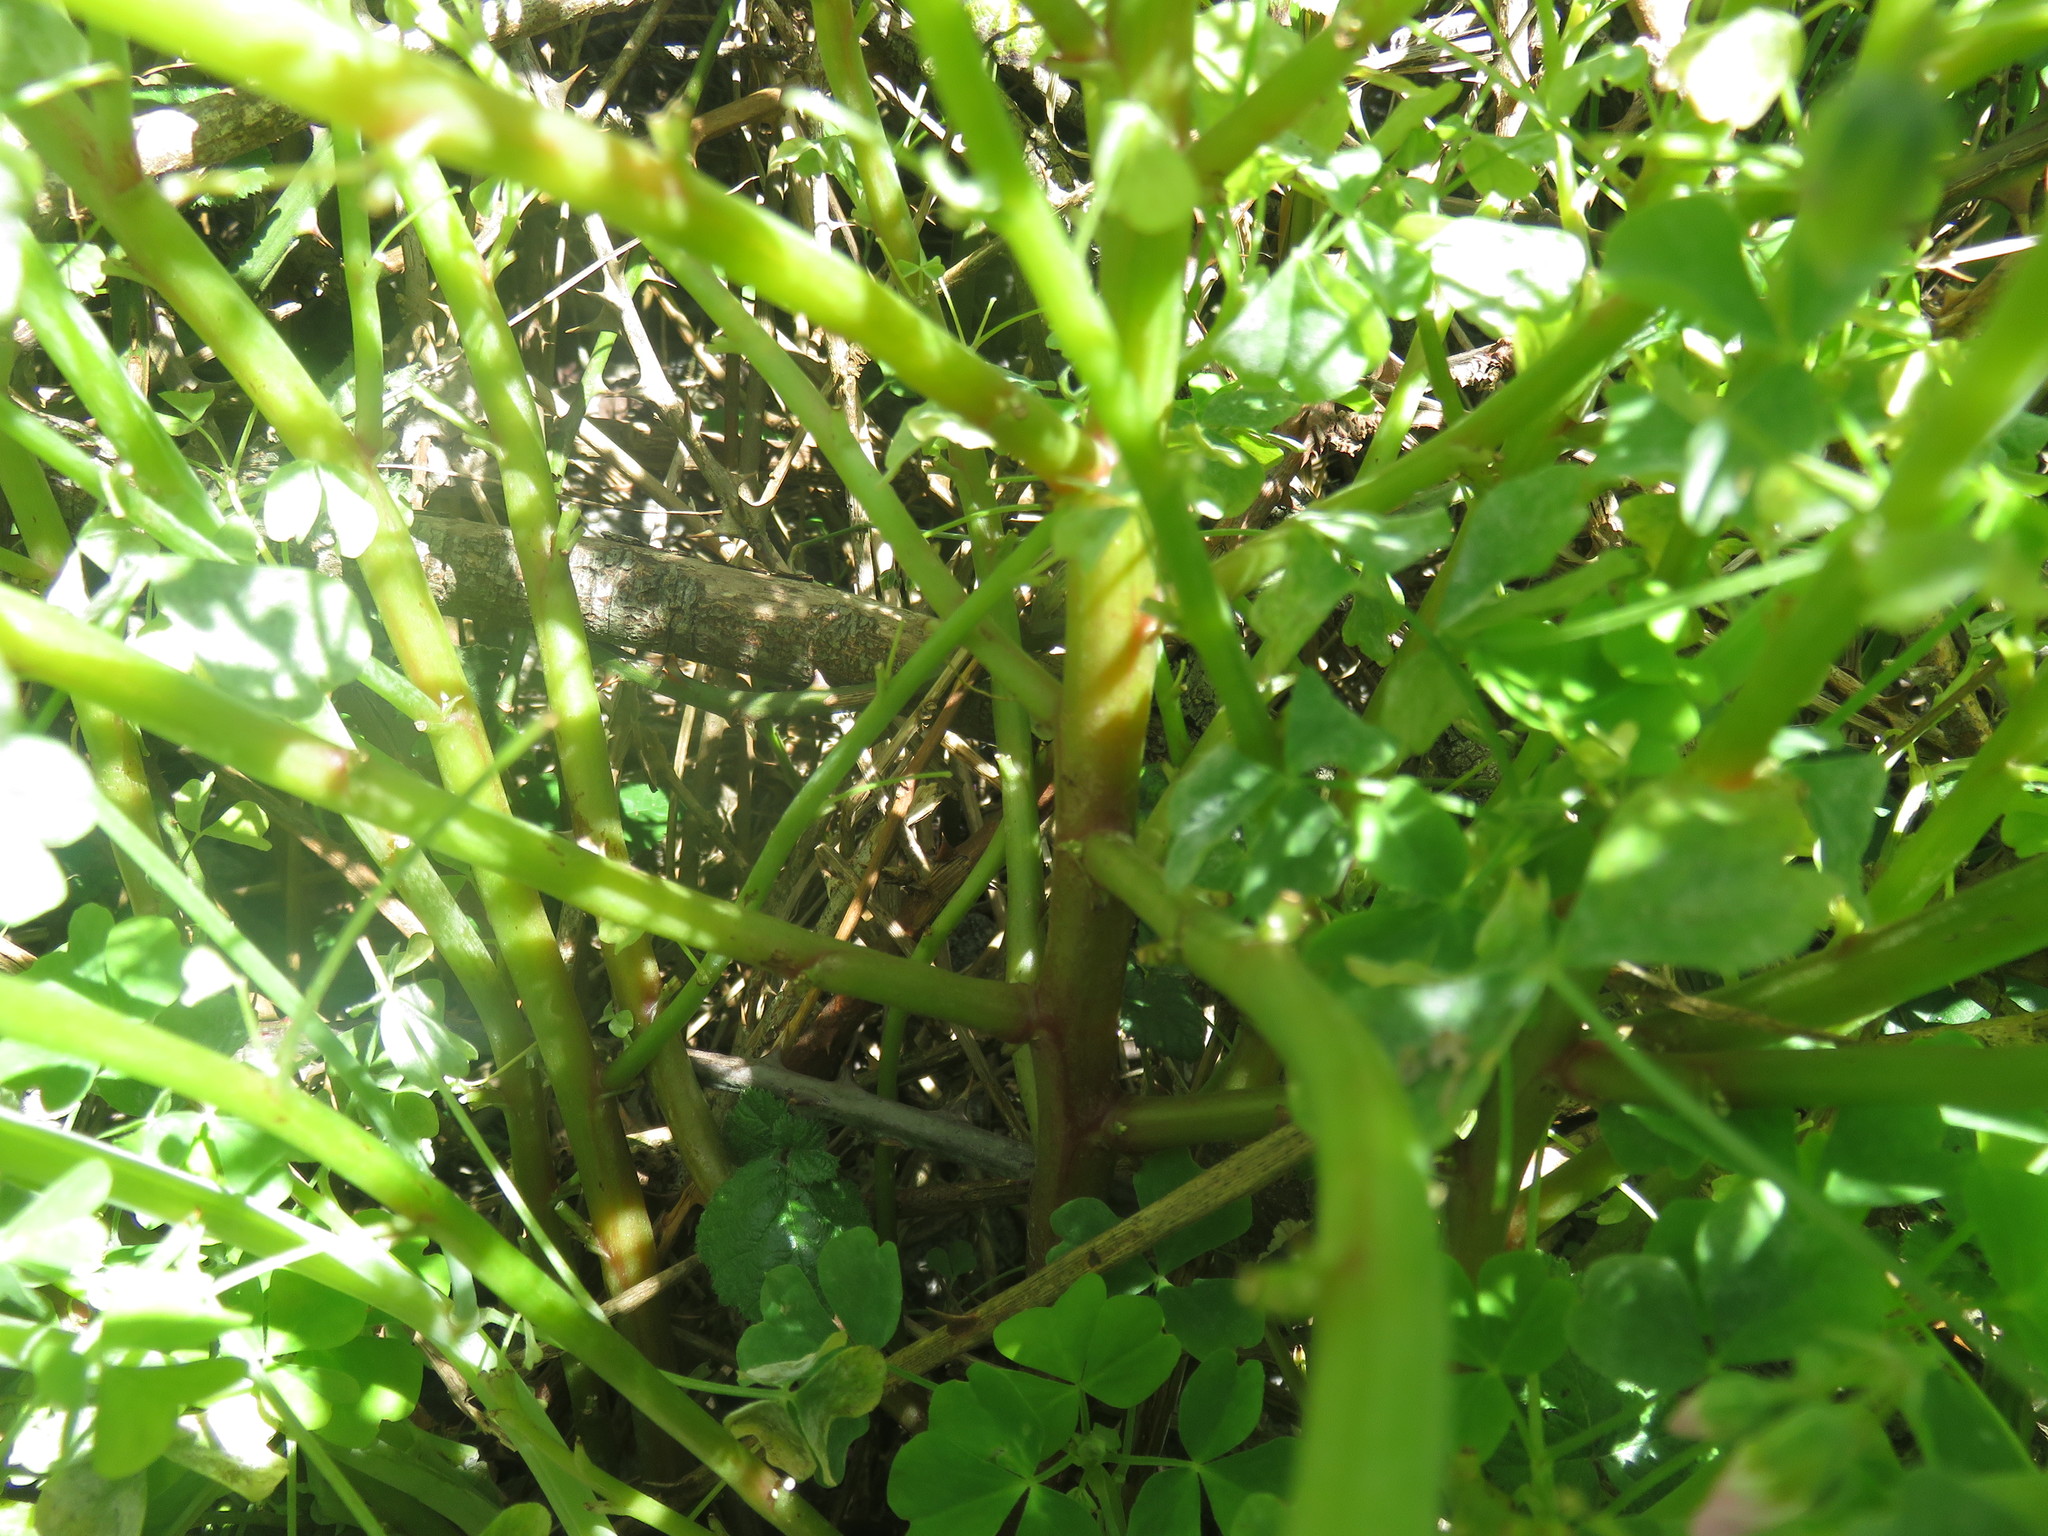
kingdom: Plantae
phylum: Tracheophyta
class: Magnoliopsida
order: Oxalidales
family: Oxalidaceae
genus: Oxalis
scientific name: Oxalis rosea
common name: Annual pink-sorrel
